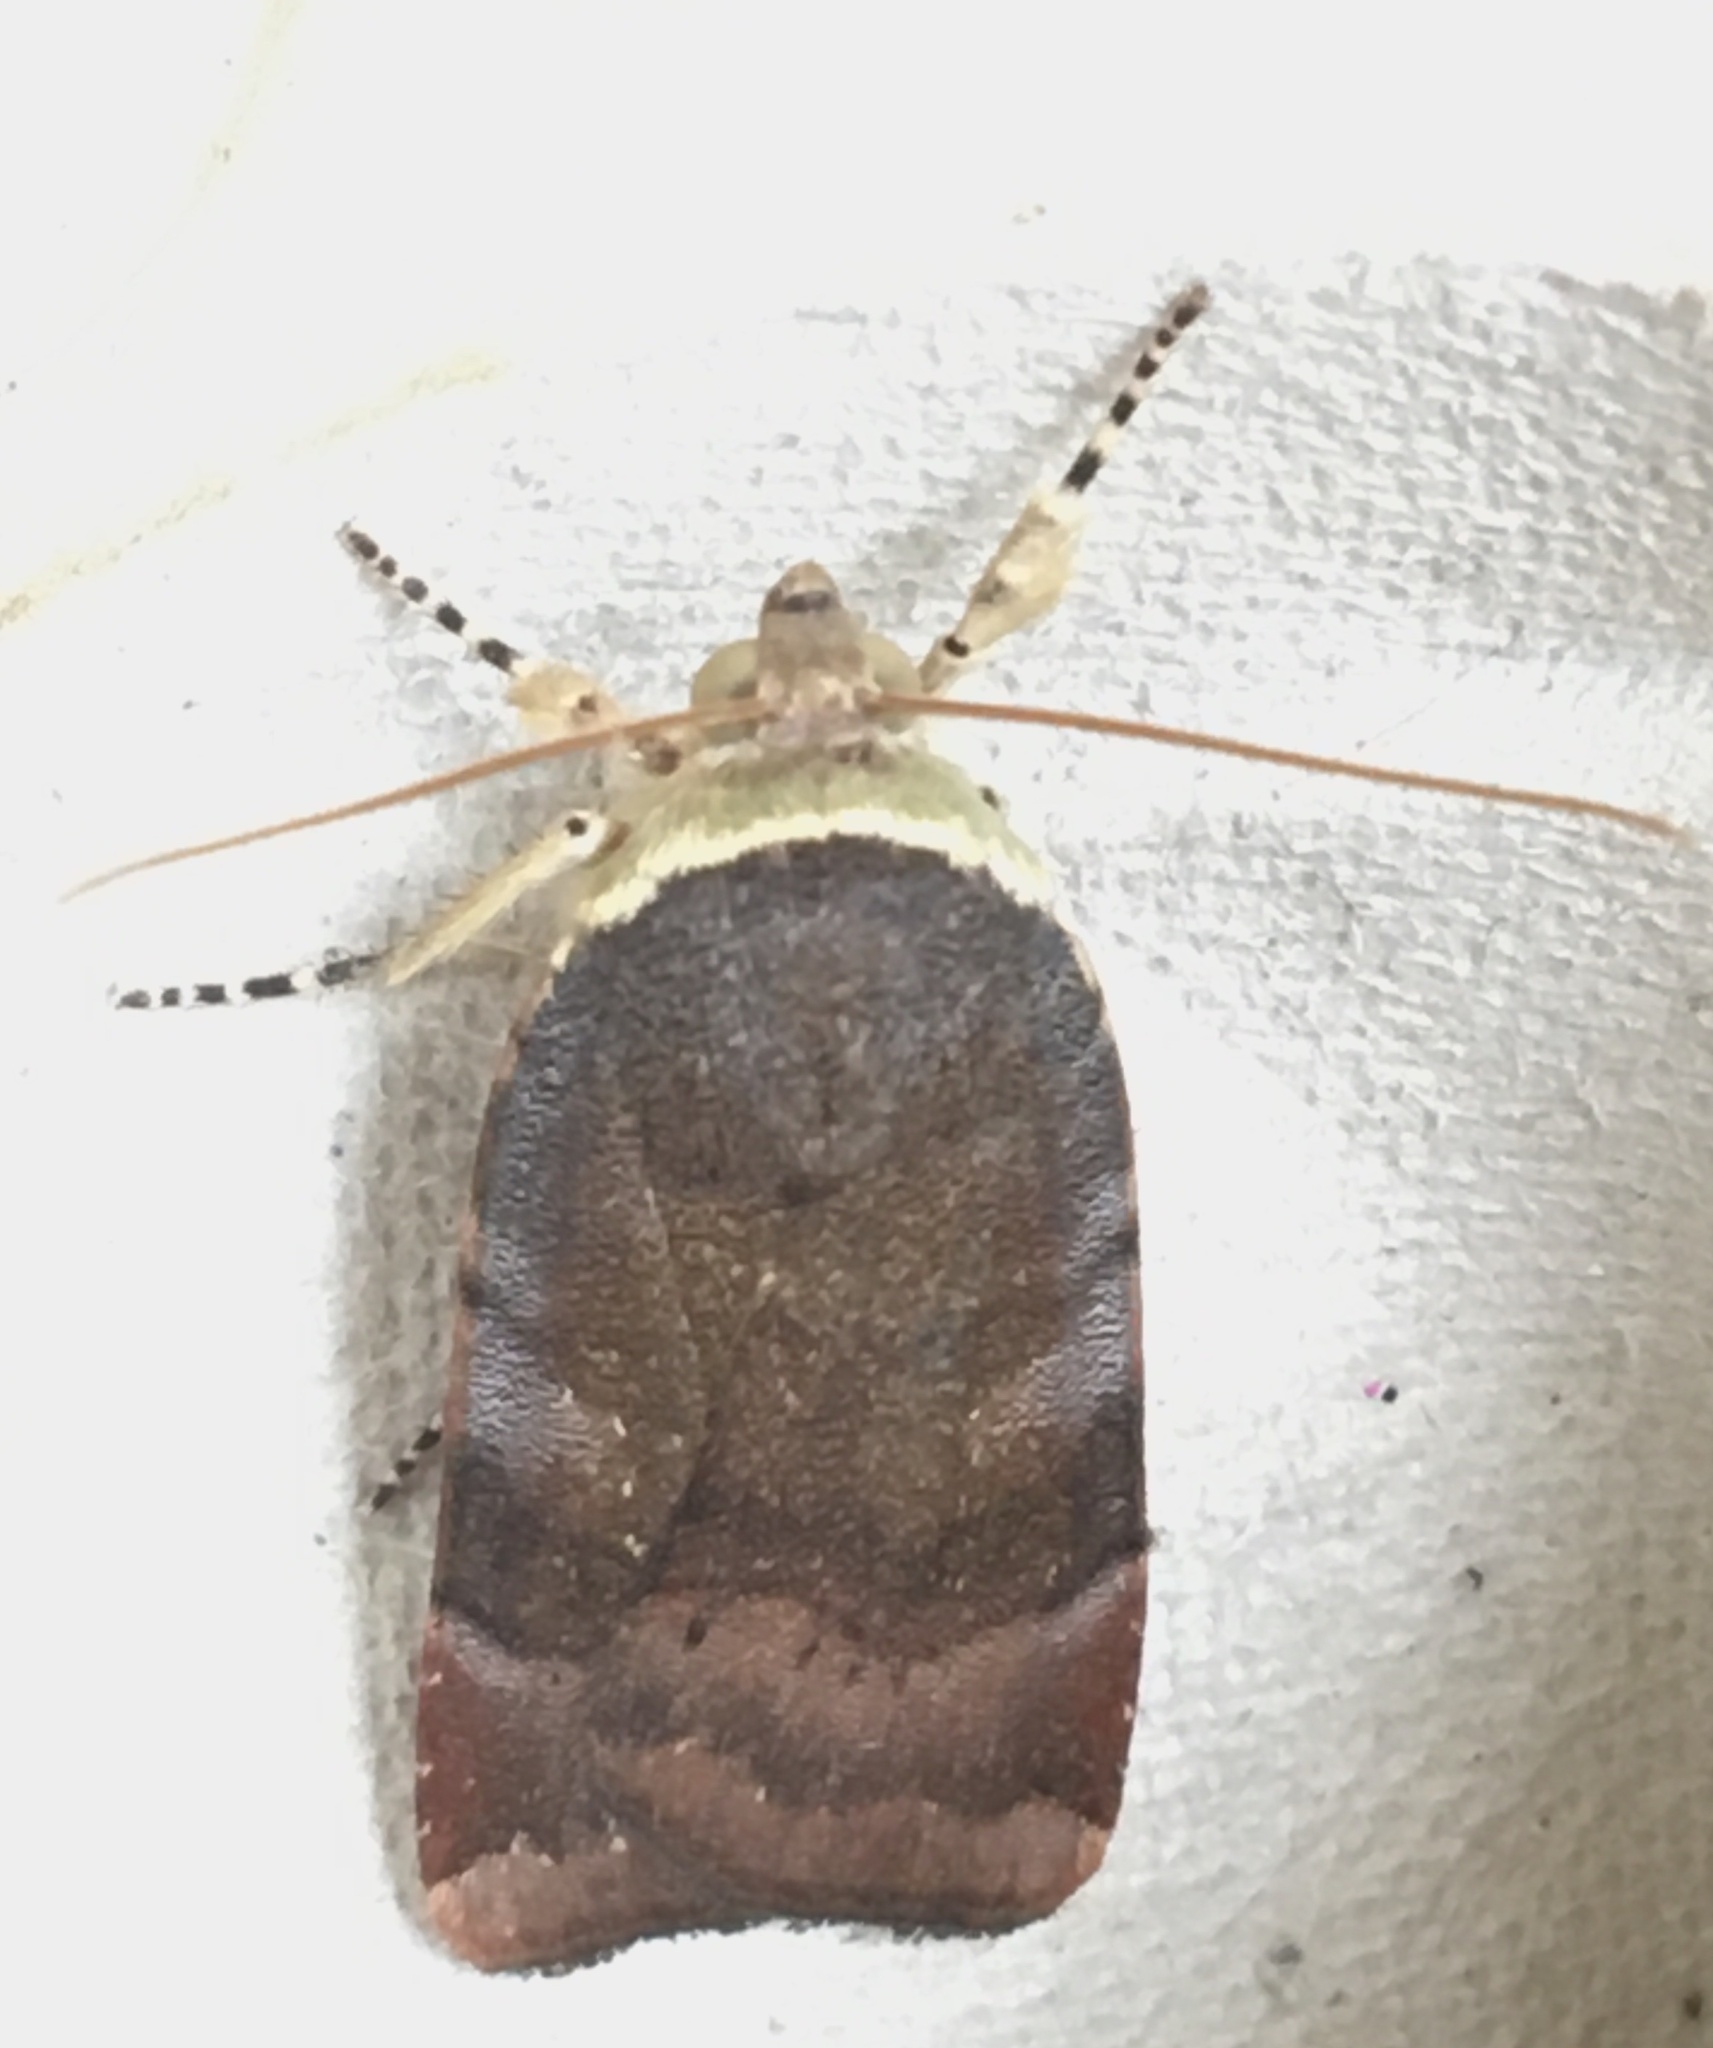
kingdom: Animalia
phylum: Arthropoda
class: Insecta
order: Lepidoptera
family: Noctuidae
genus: Noctua
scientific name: Noctua janthe
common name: Lesser broad-bordered yellow underwing
